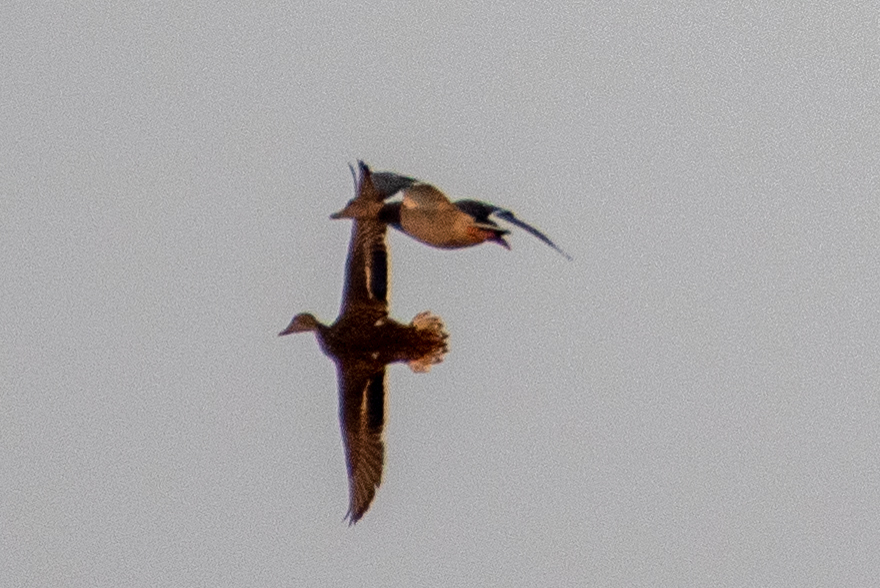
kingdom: Animalia
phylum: Chordata
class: Aves
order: Anseriformes
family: Anatidae
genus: Anas
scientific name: Anas platyrhynchos
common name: Mallard
